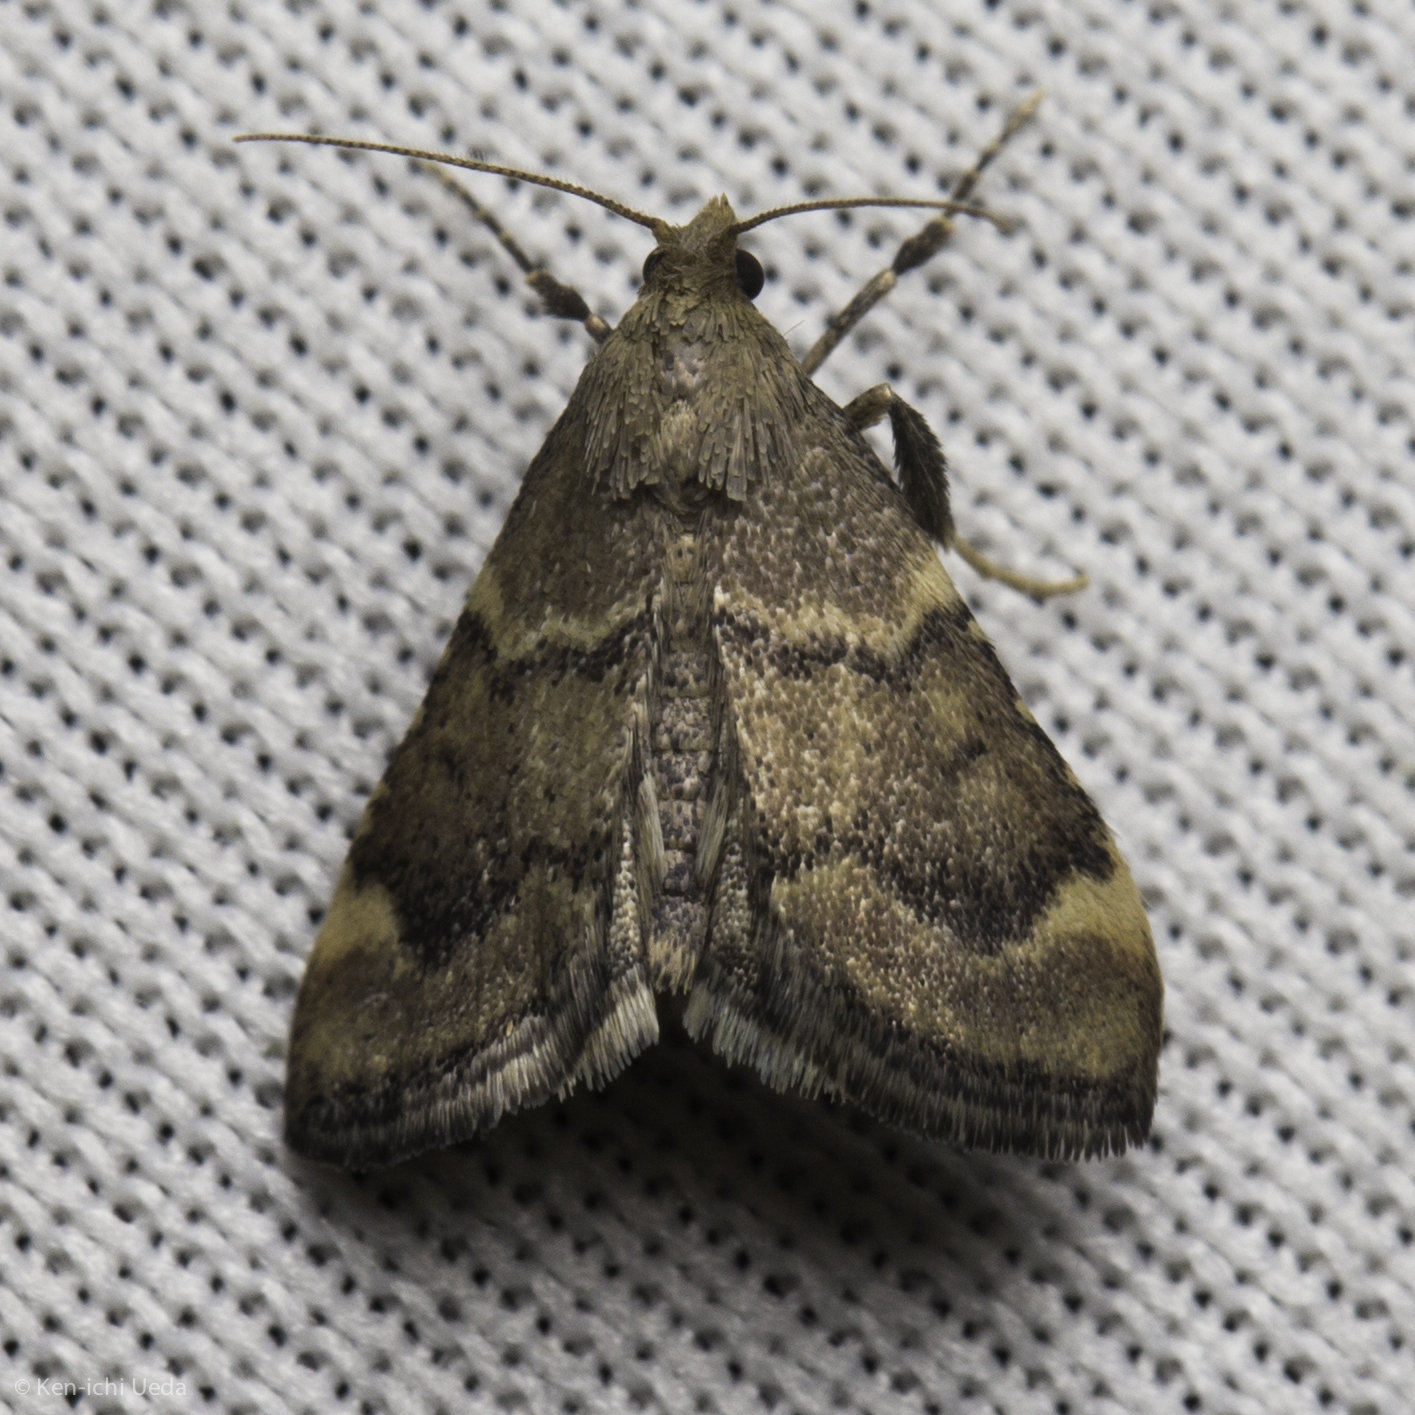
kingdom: Animalia
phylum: Arthropoda
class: Insecta
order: Lepidoptera
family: Pyralidae
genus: Hypsopygia
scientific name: Hypsopygia phoezalis
